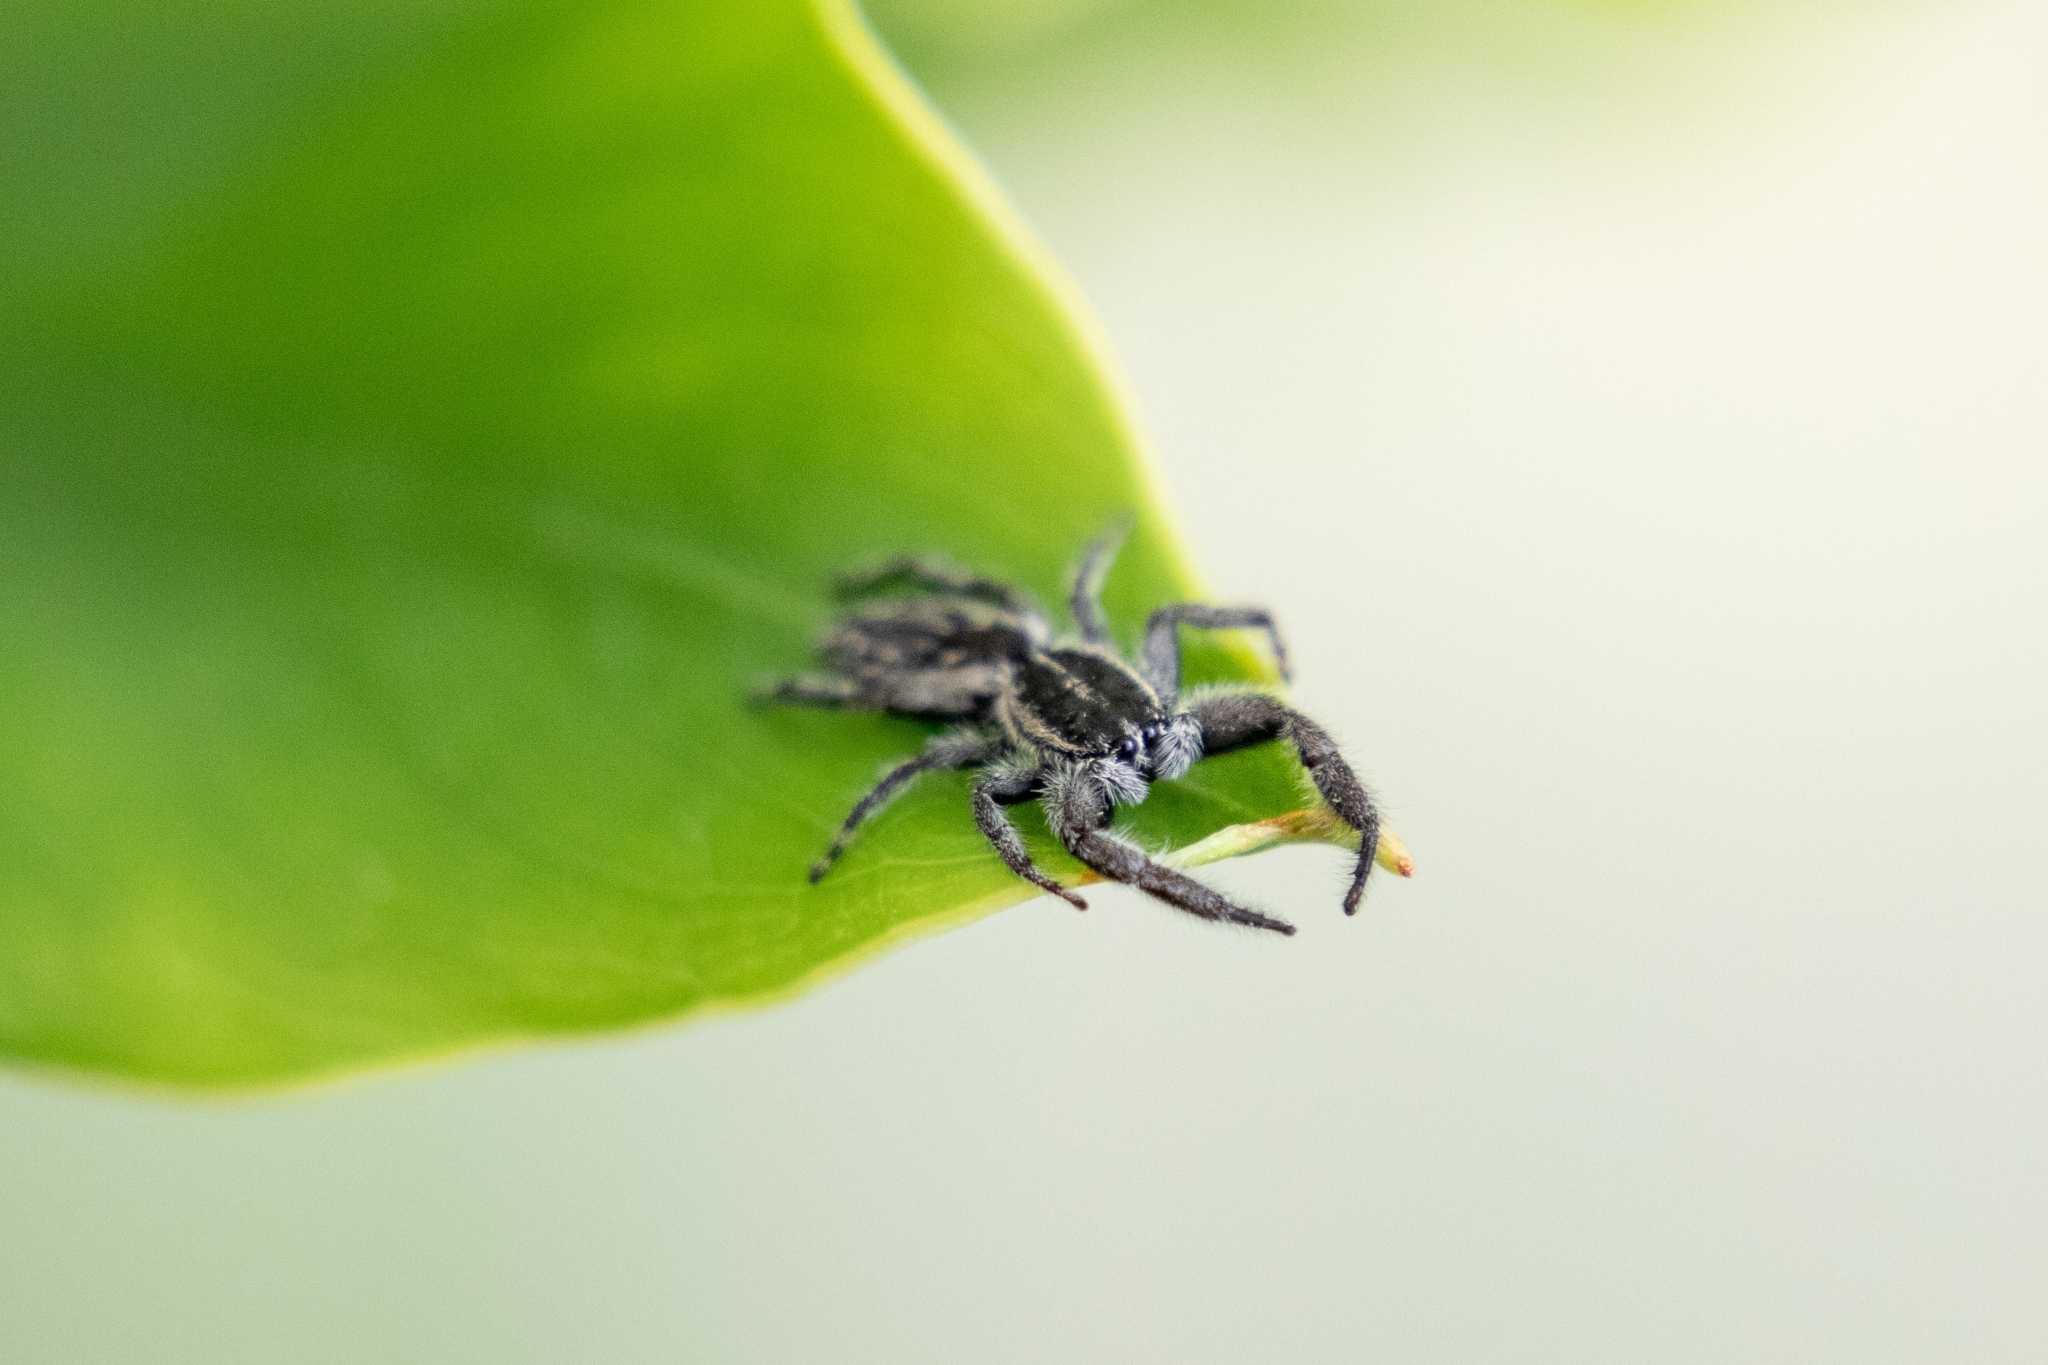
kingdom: Animalia
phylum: Arthropoda
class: Arachnida
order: Araneae
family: Salticidae
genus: Holoplatys
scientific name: Holoplatys apressus
